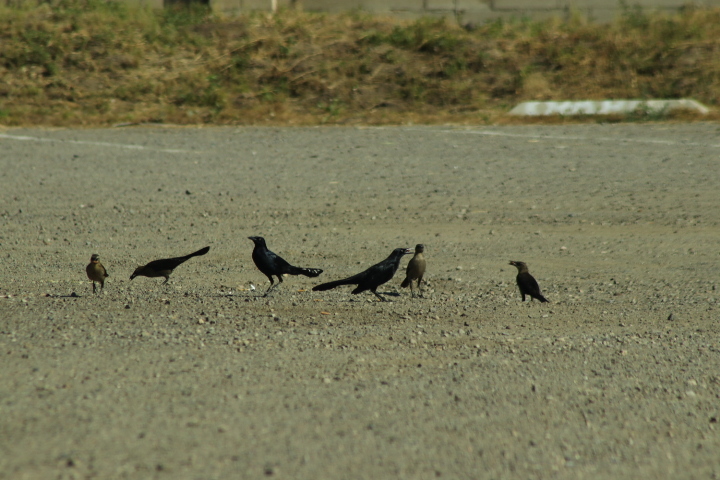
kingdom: Animalia
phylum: Chordata
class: Aves
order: Passeriformes
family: Icteridae
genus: Quiscalus
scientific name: Quiscalus mexicanus
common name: Great-tailed grackle
